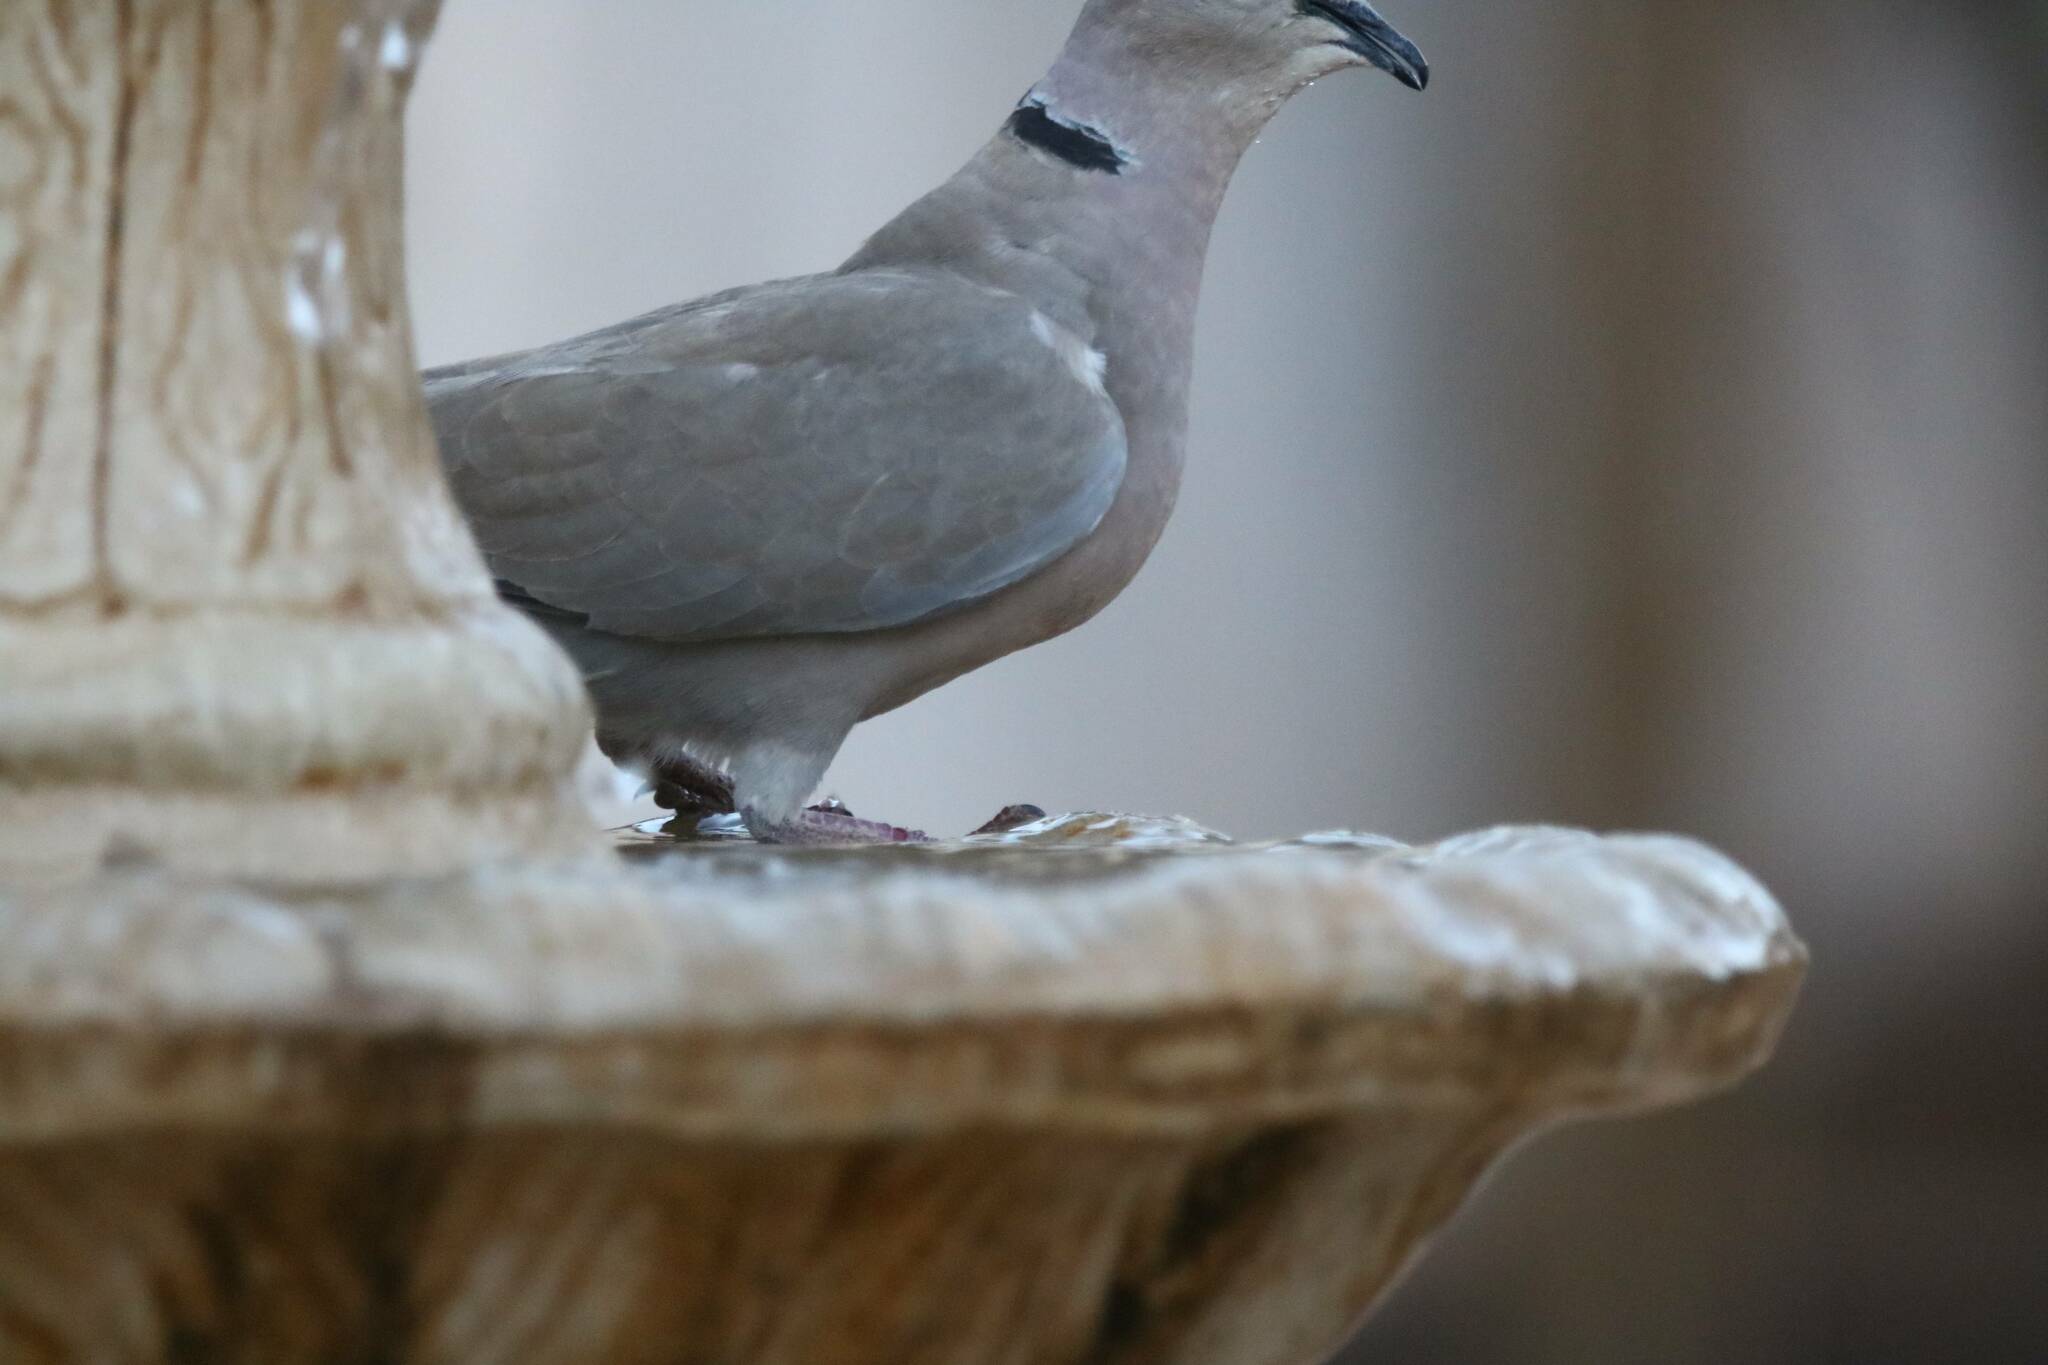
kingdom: Animalia
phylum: Chordata
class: Aves
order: Columbiformes
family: Columbidae
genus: Streptopelia
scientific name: Streptopelia decaocto
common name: Eurasian collared dove
